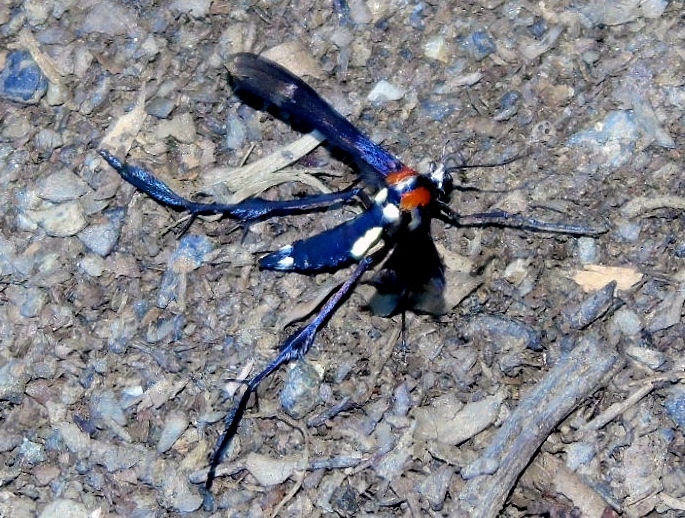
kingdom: Animalia
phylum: Arthropoda
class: Insecta
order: Lepidoptera
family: Pterophoridae
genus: Hellinsia
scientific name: Hellinsia chamelai
